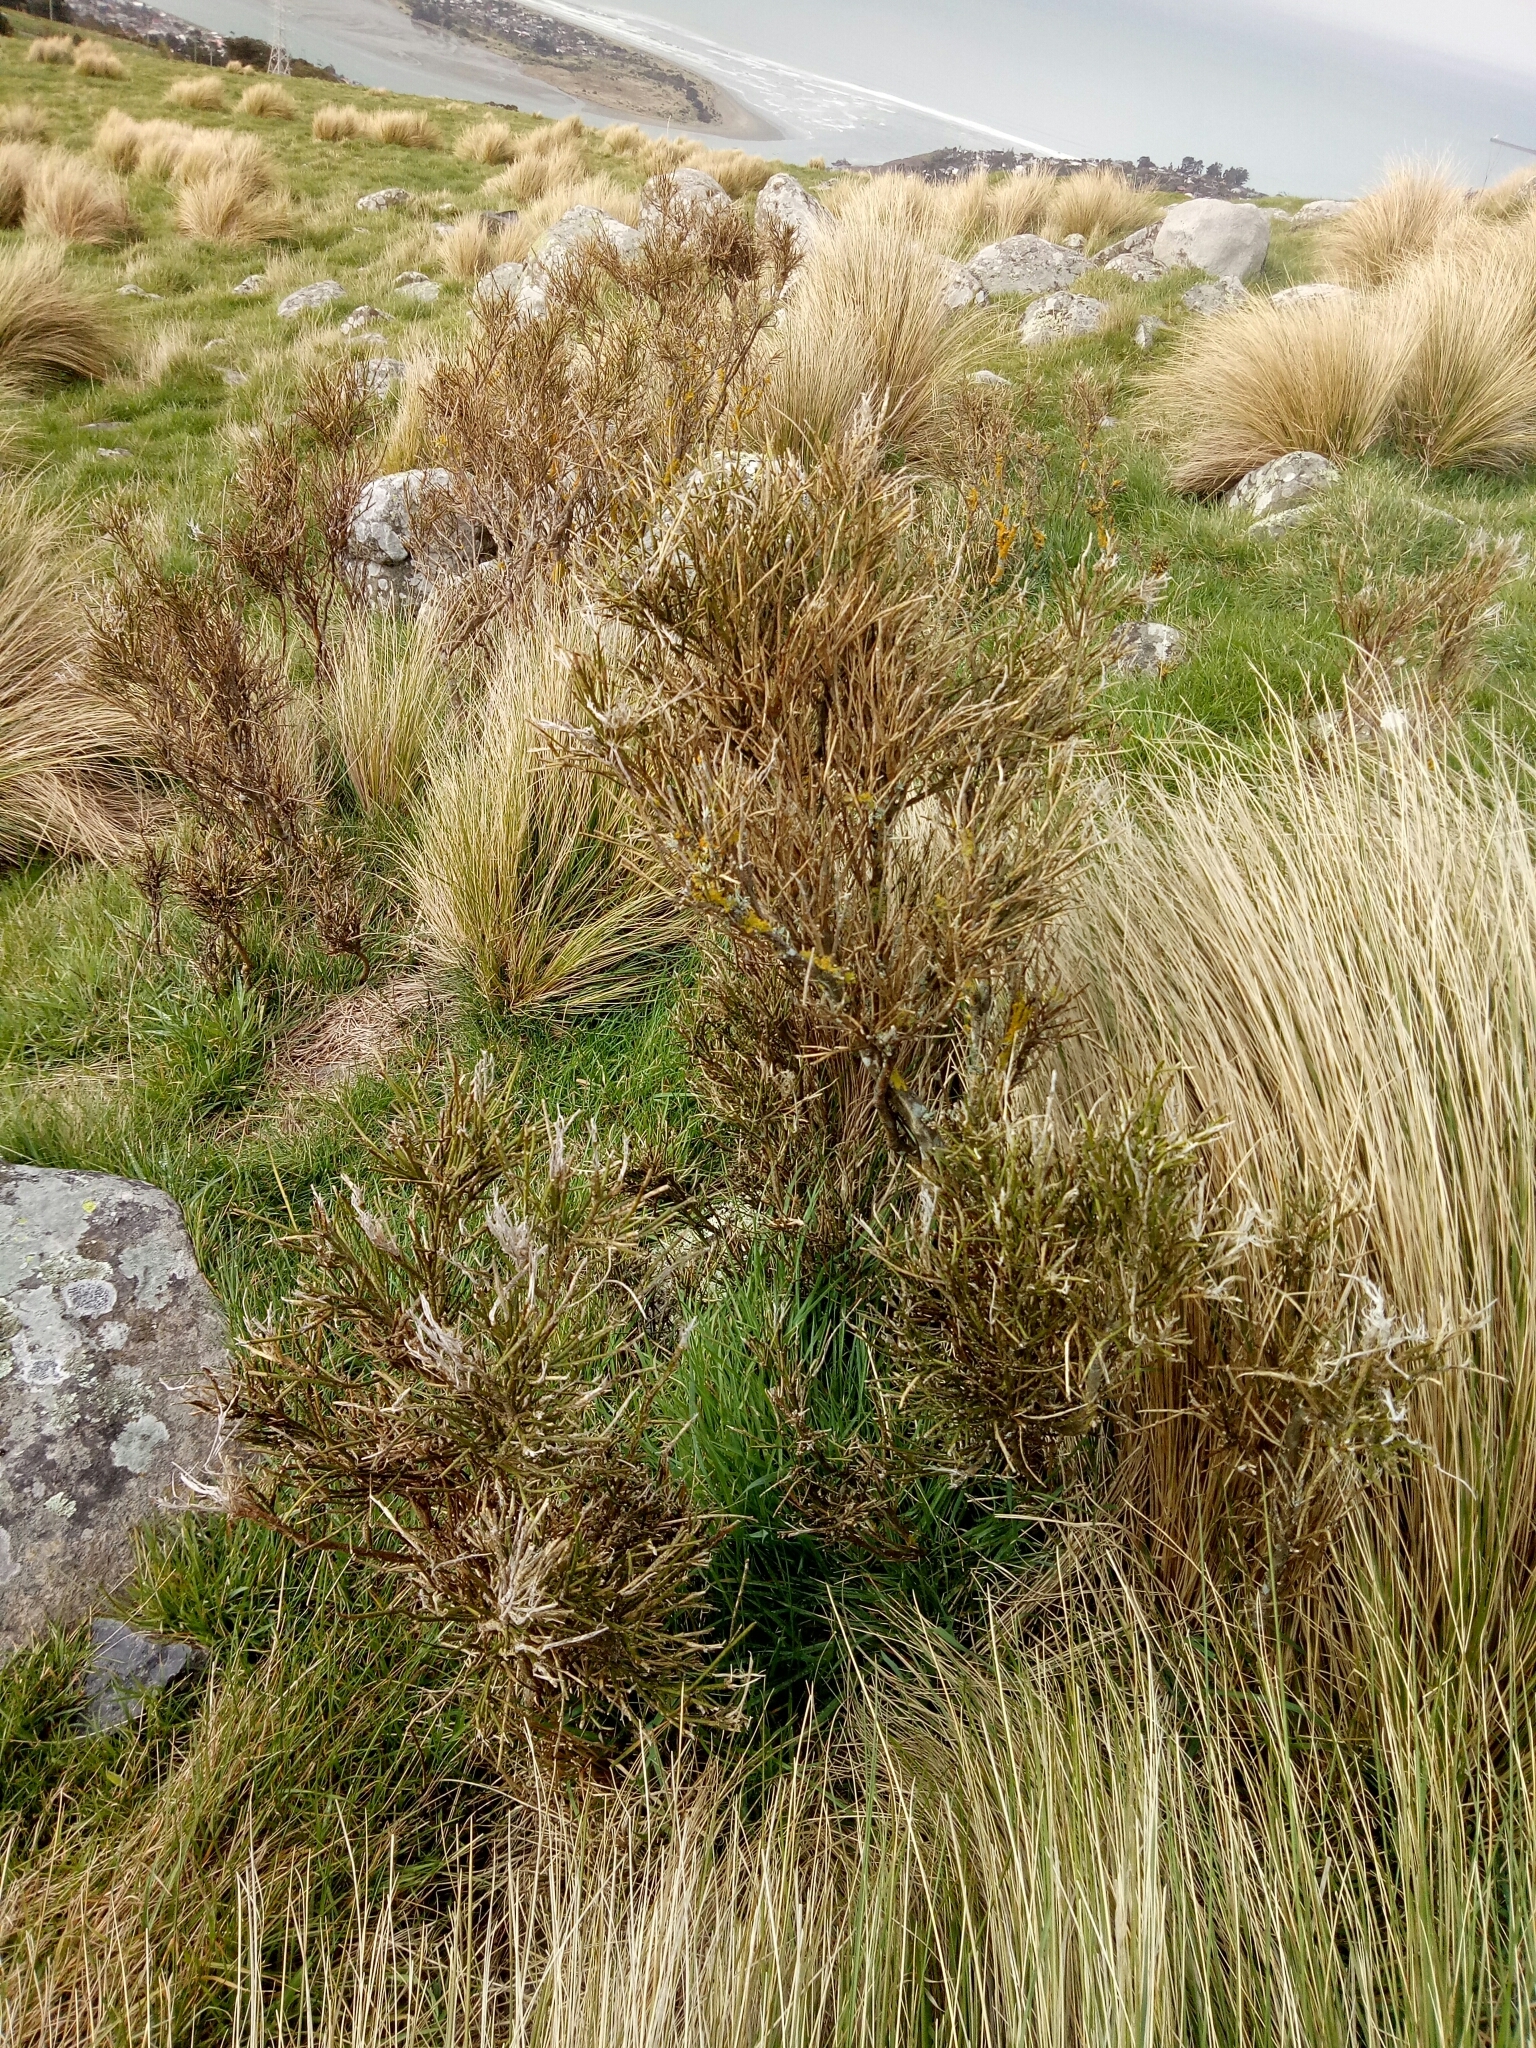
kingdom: Plantae
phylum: Tracheophyta
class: Magnoliopsida
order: Fabales
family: Fabaceae
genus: Carmichaelia
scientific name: Carmichaelia australis
